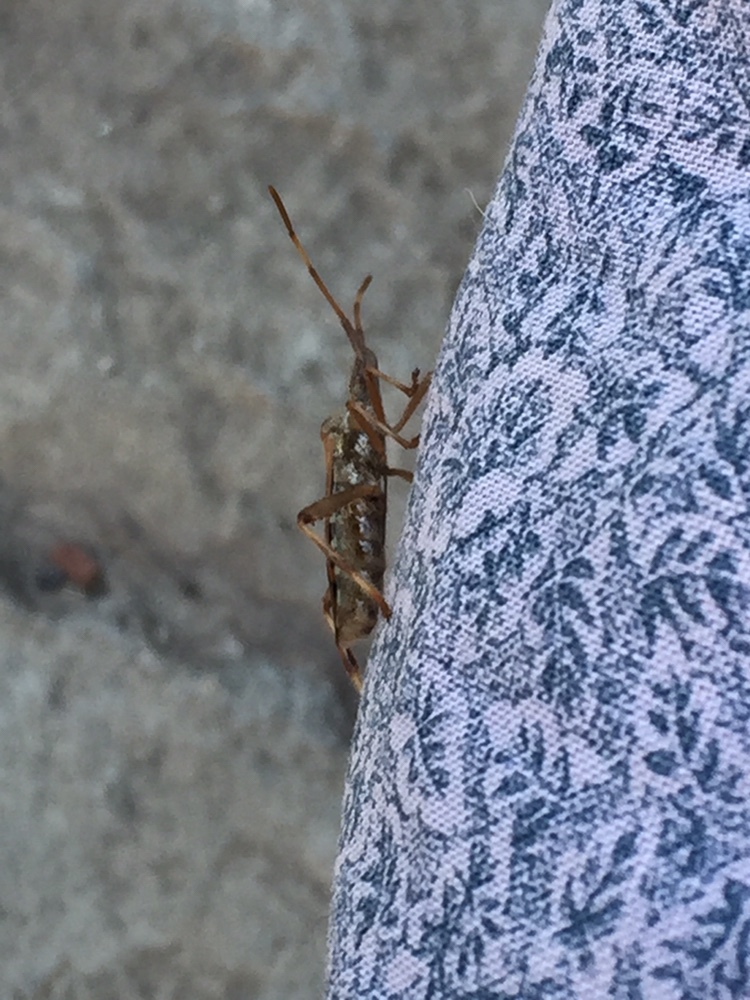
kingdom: Animalia
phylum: Arthropoda
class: Insecta
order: Hemiptera
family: Coreidae
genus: Leptoglossus
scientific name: Leptoglossus occidentalis
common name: Western conifer-seed bug
